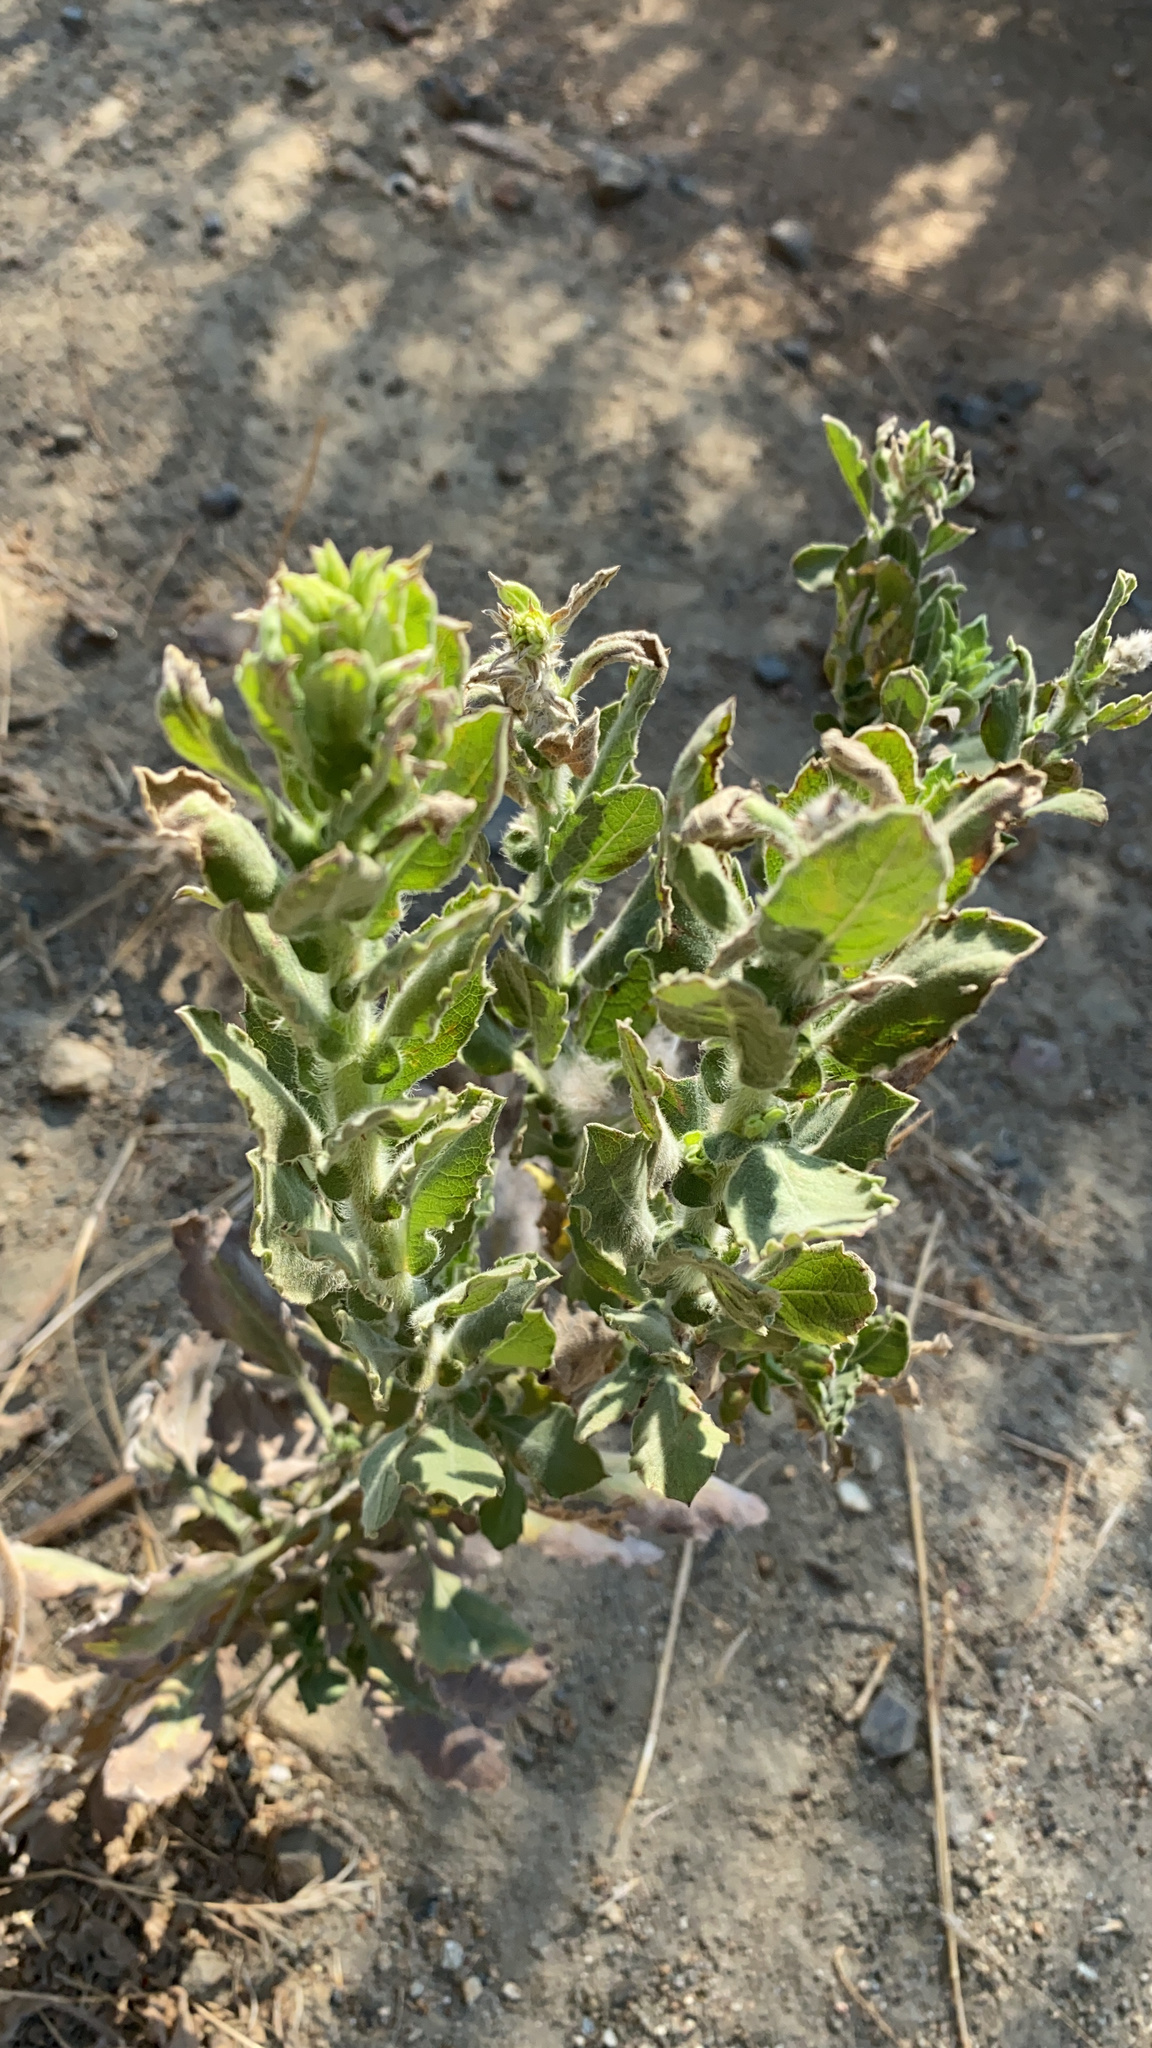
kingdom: Plantae
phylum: Tracheophyta
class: Magnoliopsida
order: Asterales
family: Asteraceae
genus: Heterotheca
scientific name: Heterotheca grandiflora
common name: Telegraphweed
